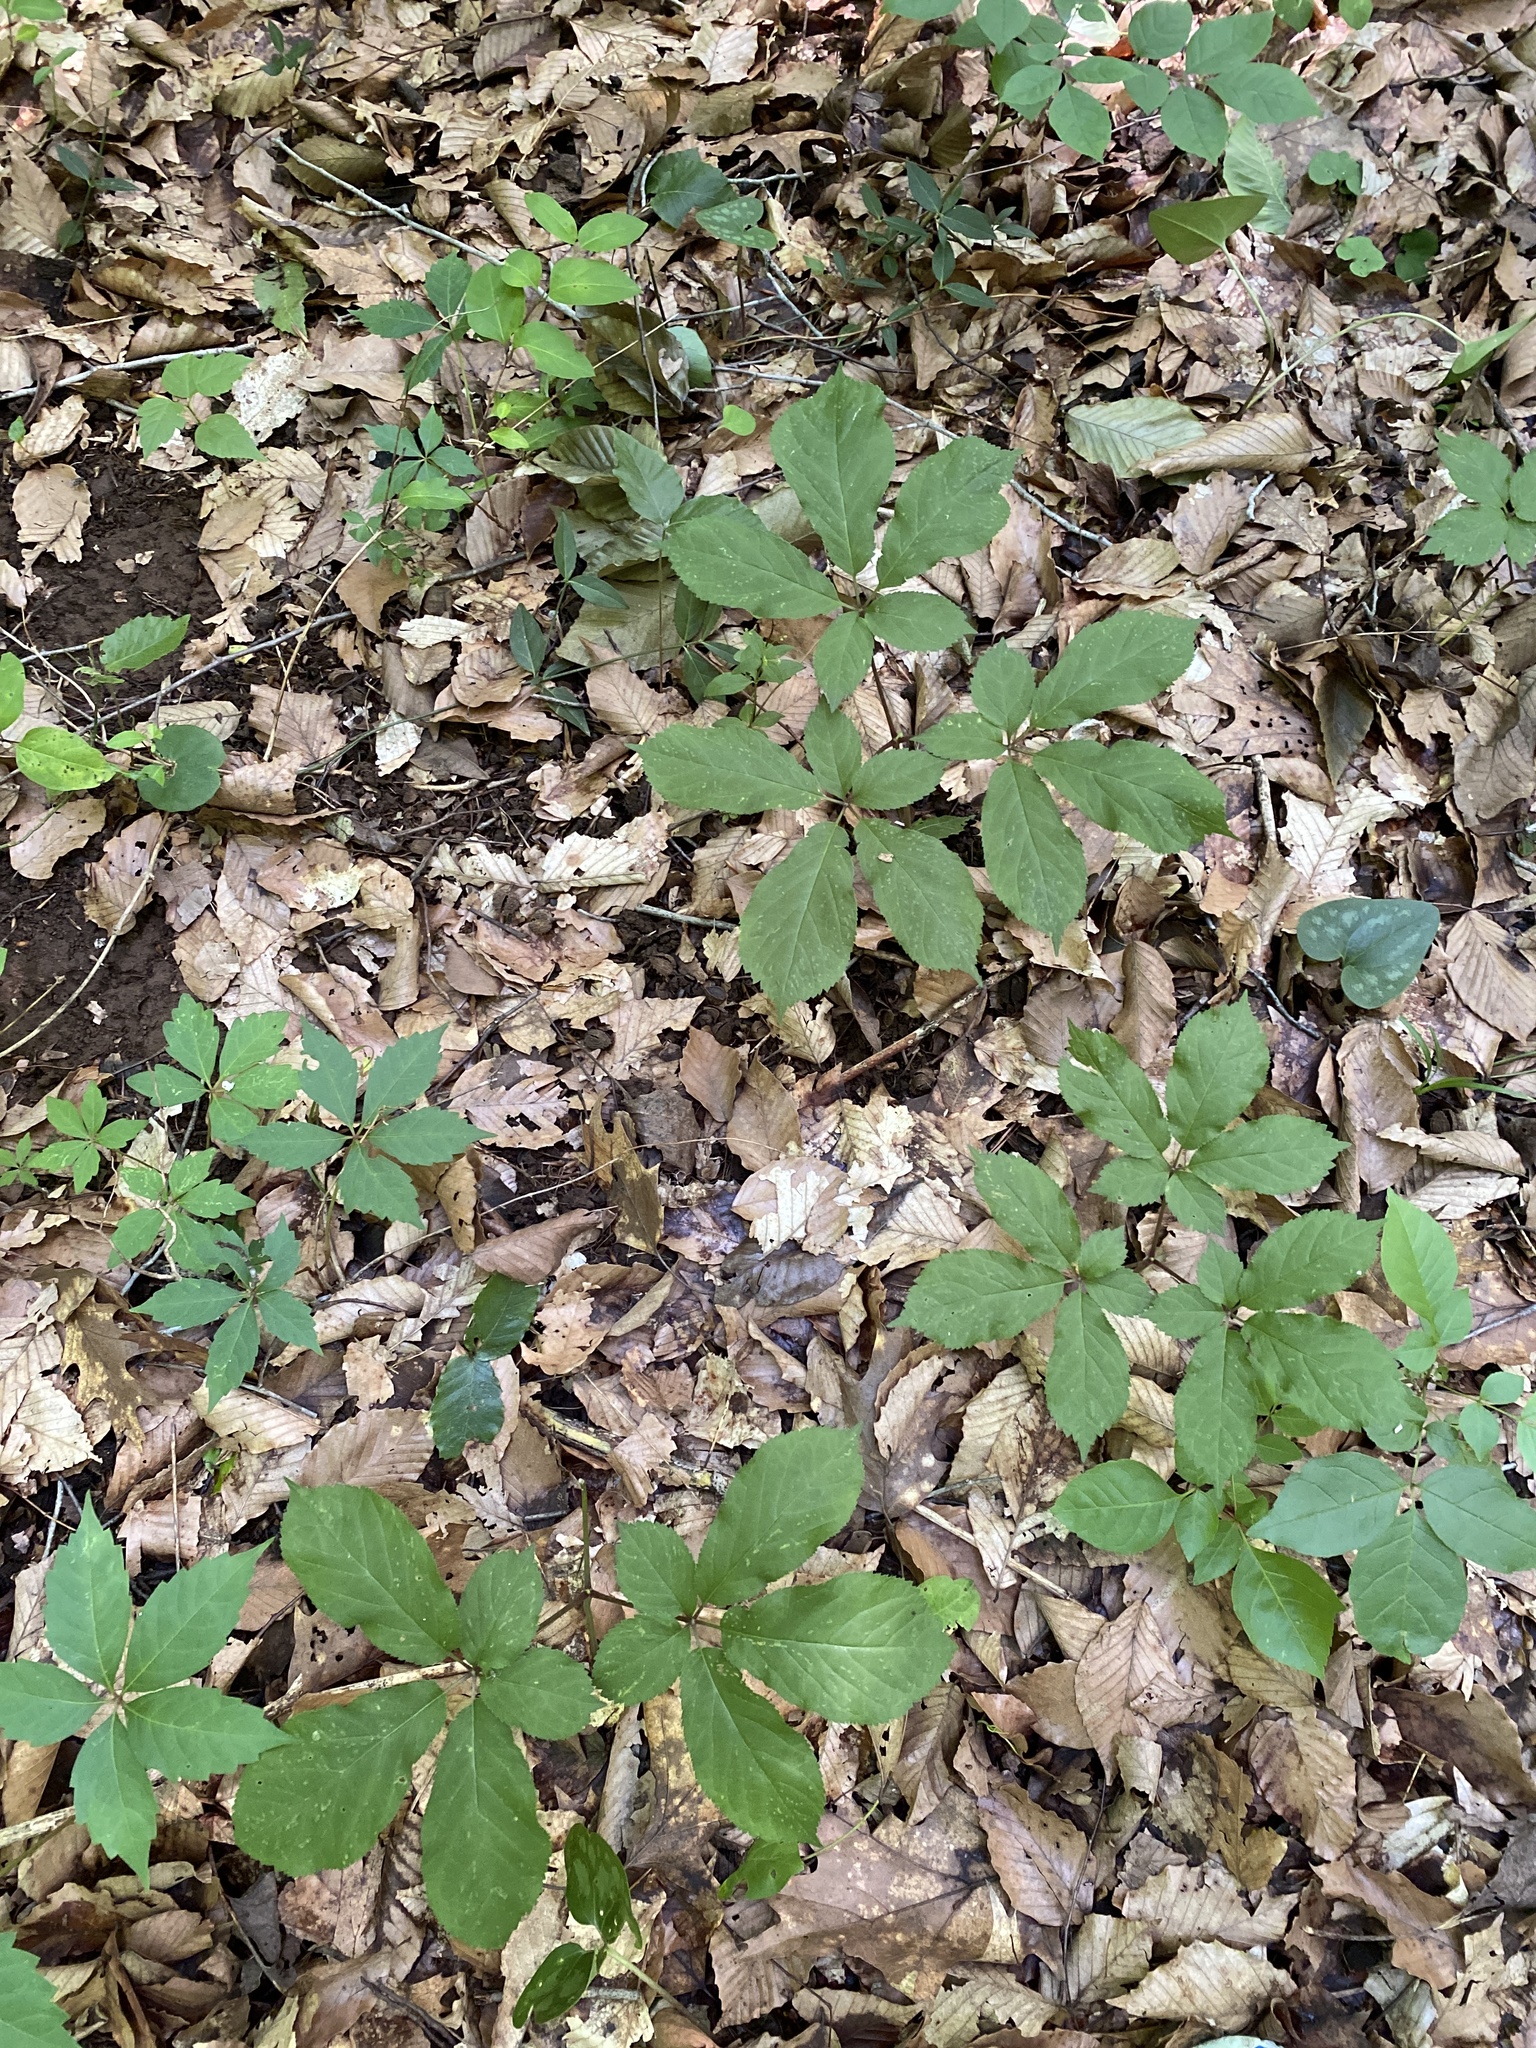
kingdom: Plantae
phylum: Tracheophyta
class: Magnoliopsida
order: Apiales
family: Araliaceae
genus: Panax
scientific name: Panax quinquefolius
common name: American ginseng
